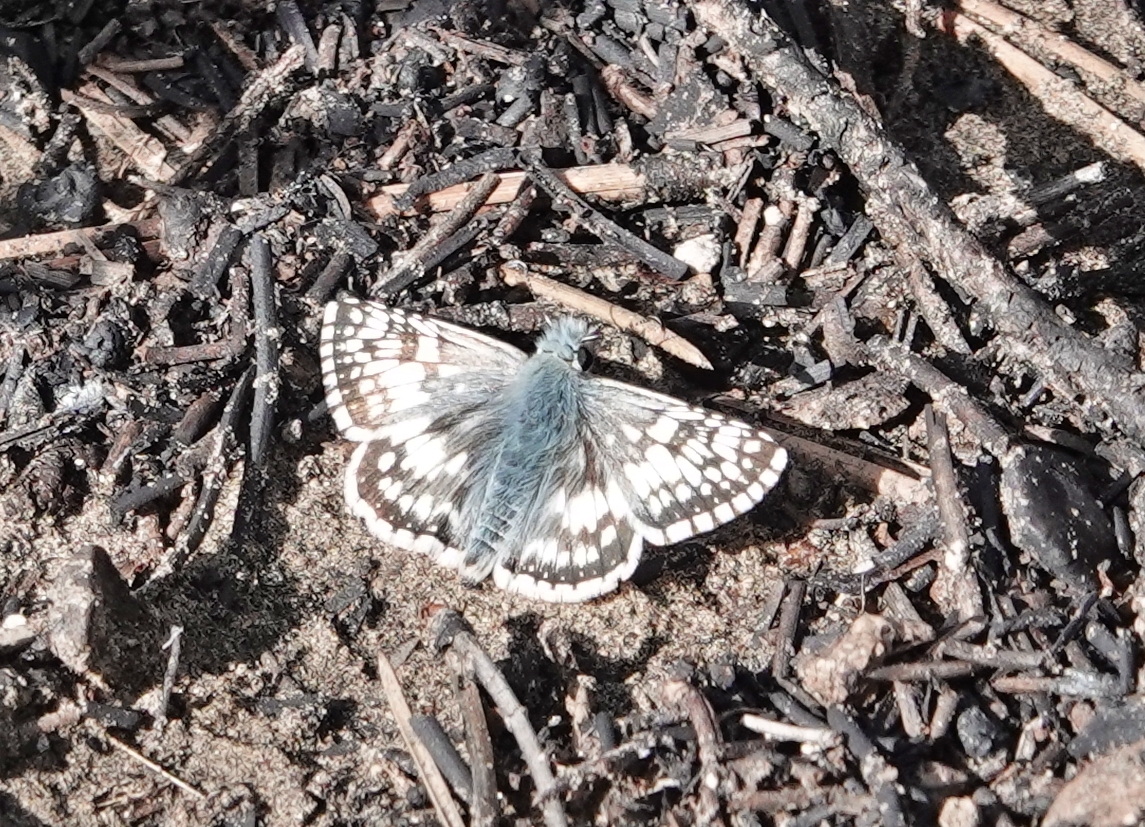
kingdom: Animalia
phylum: Arthropoda
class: Insecta
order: Lepidoptera
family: Hesperiidae
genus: Burnsius
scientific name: Burnsius communis
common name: Common checkered-skipper
